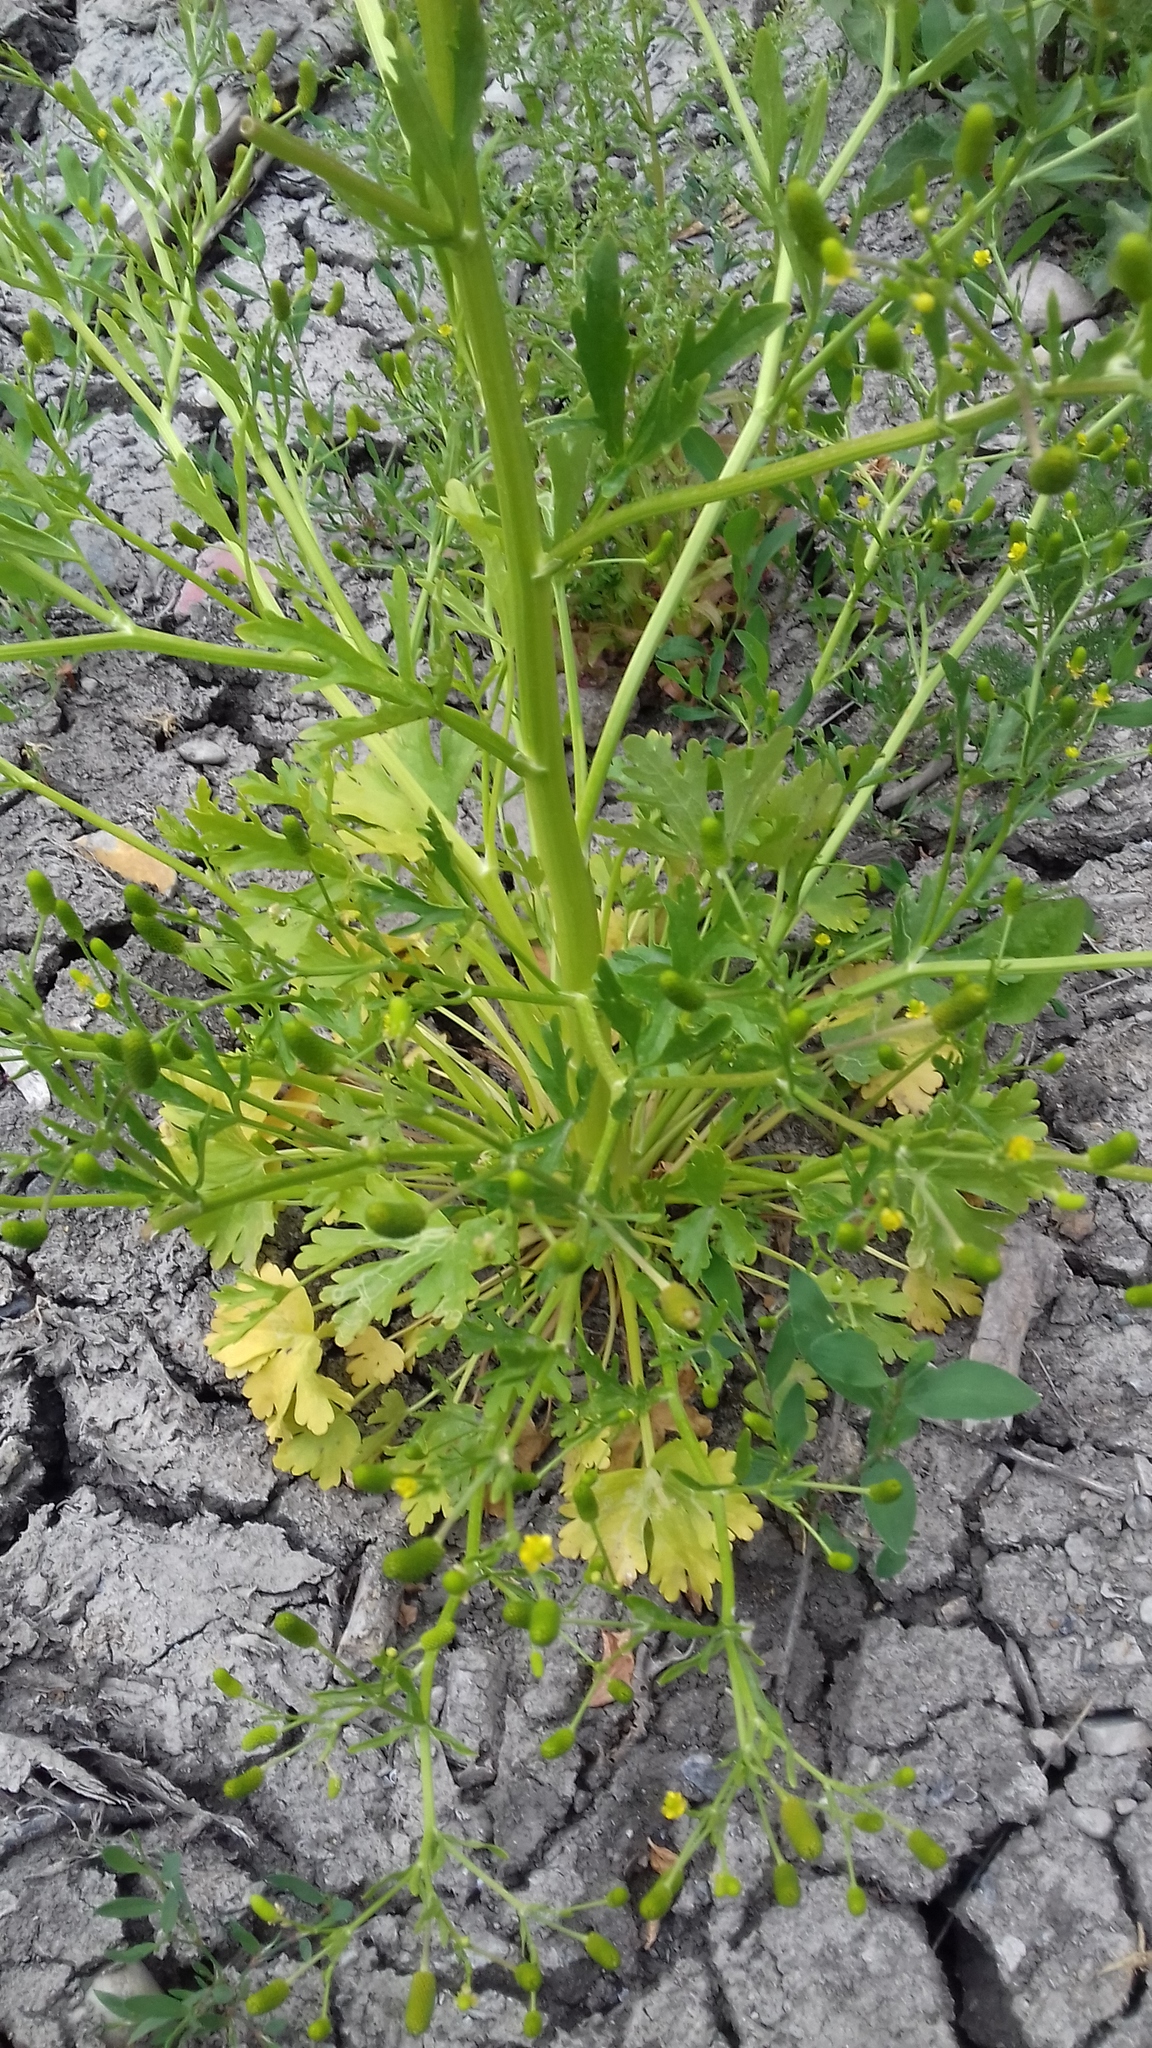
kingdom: Plantae
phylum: Tracheophyta
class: Magnoliopsida
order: Ranunculales
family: Ranunculaceae
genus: Ranunculus
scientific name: Ranunculus sceleratus
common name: Celery-leaved buttercup
